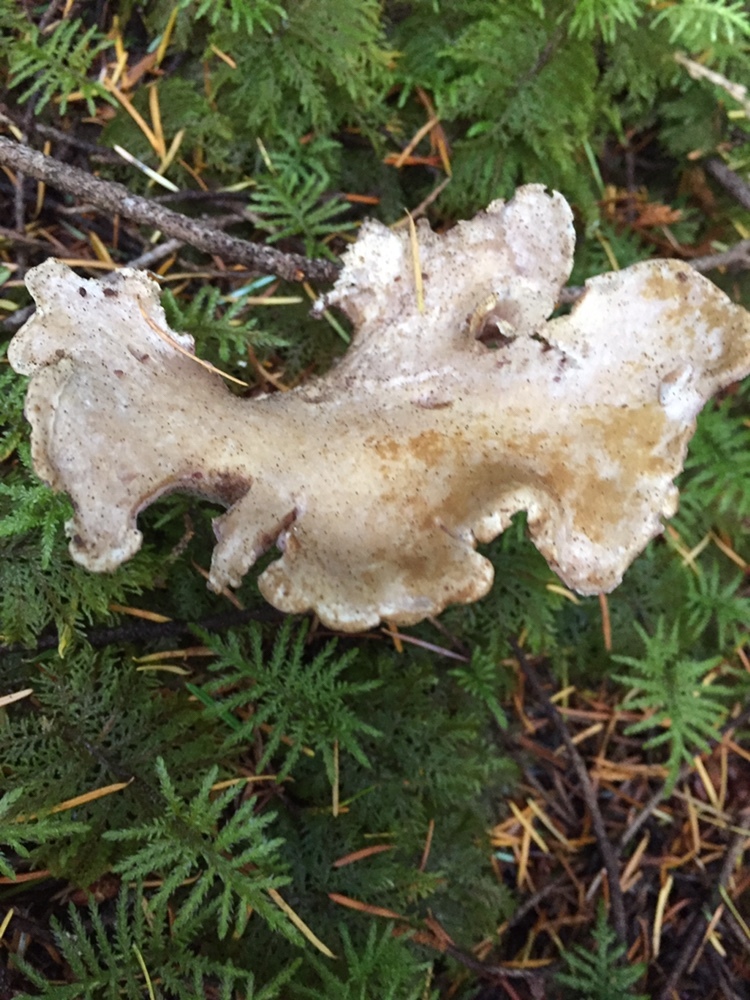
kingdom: Fungi
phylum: Basidiomycota
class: Agaricomycetes
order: Gomphales
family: Gomphaceae
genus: Gomphus
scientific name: Gomphus clavatus
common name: Pig's ear
